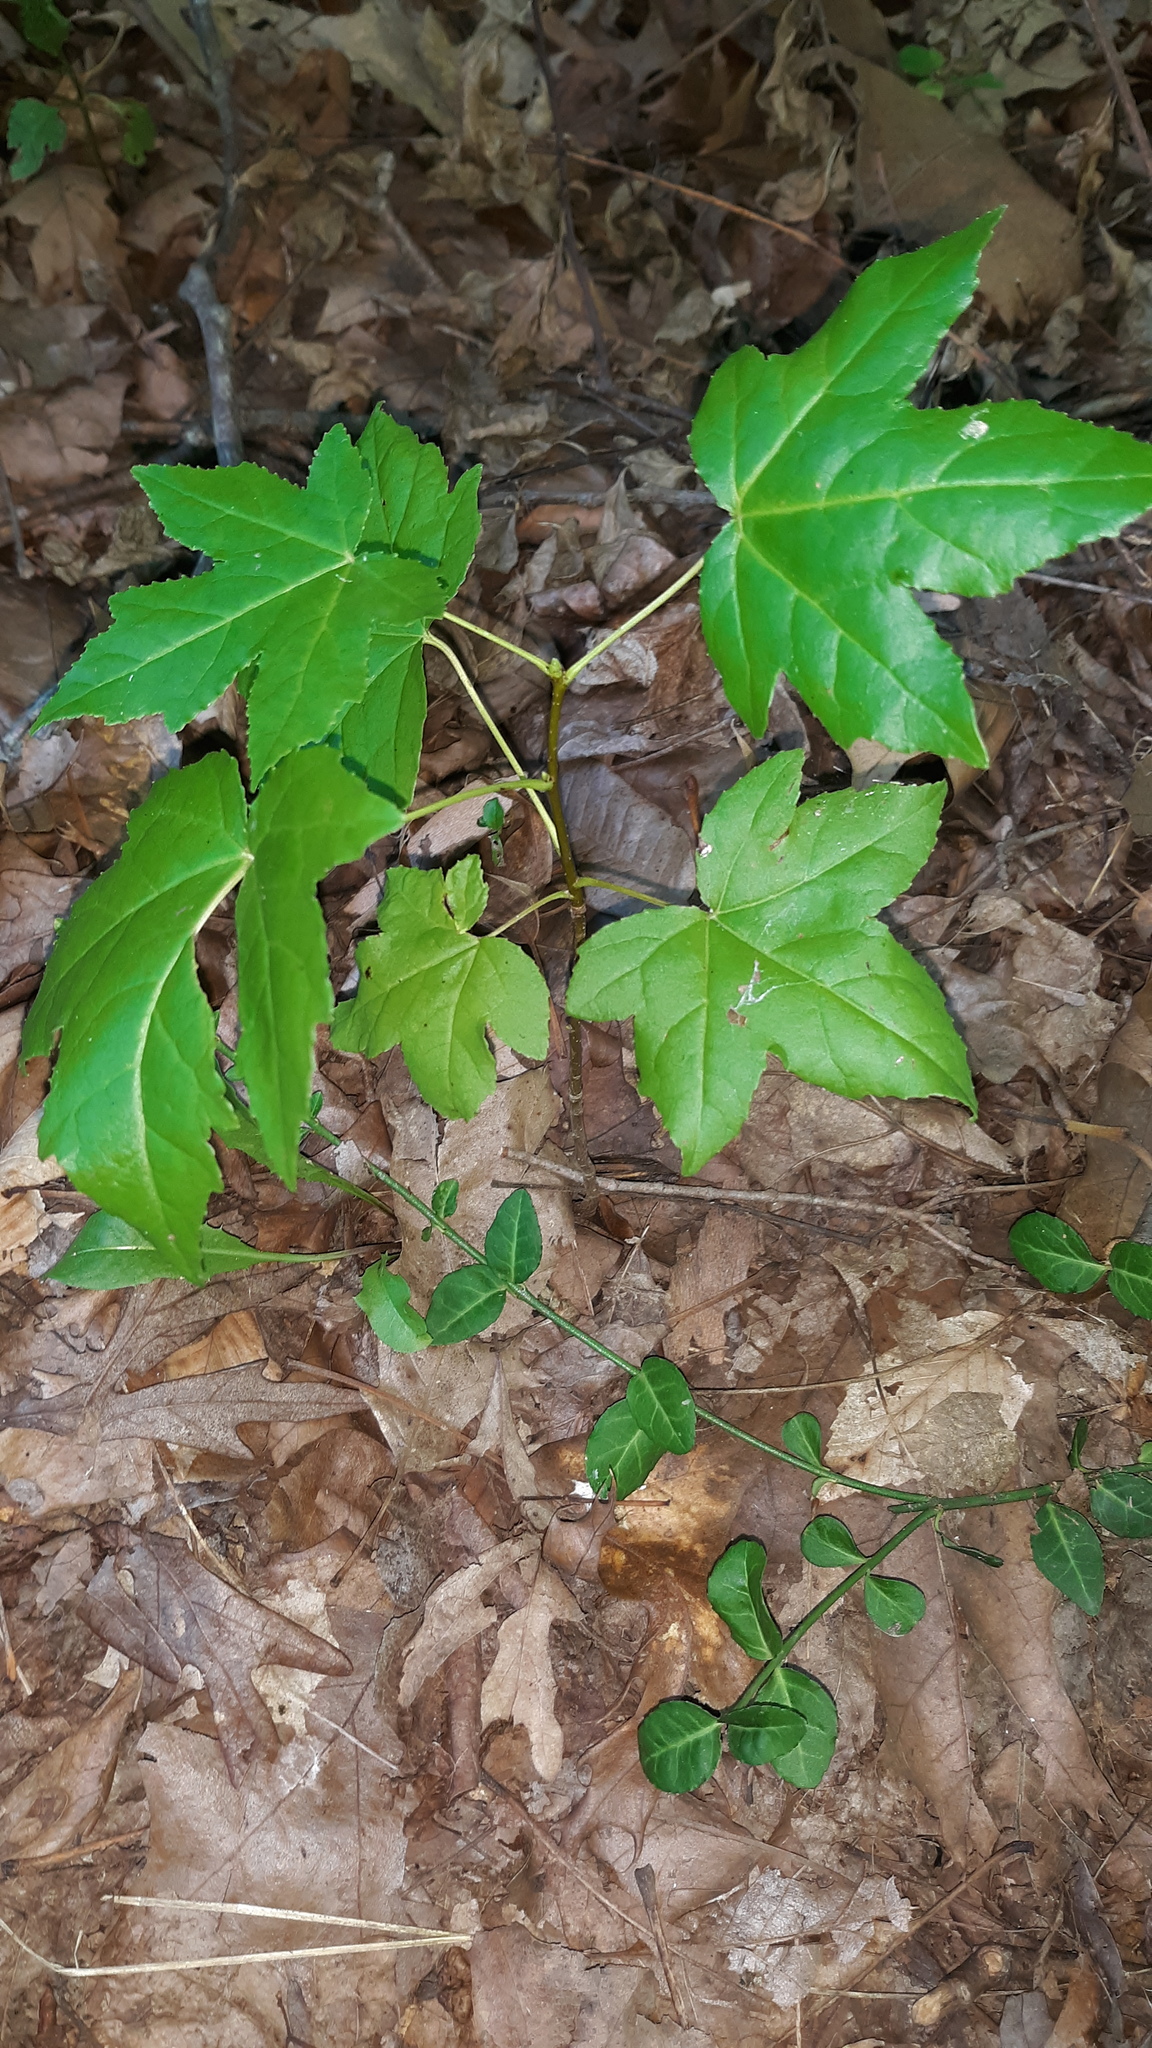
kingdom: Plantae
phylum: Tracheophyta
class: Magnoliopsida
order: Saxifragales
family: Altingiaceae
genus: Liquidambar
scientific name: Liquidambar styraciflua
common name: Sweet gum
